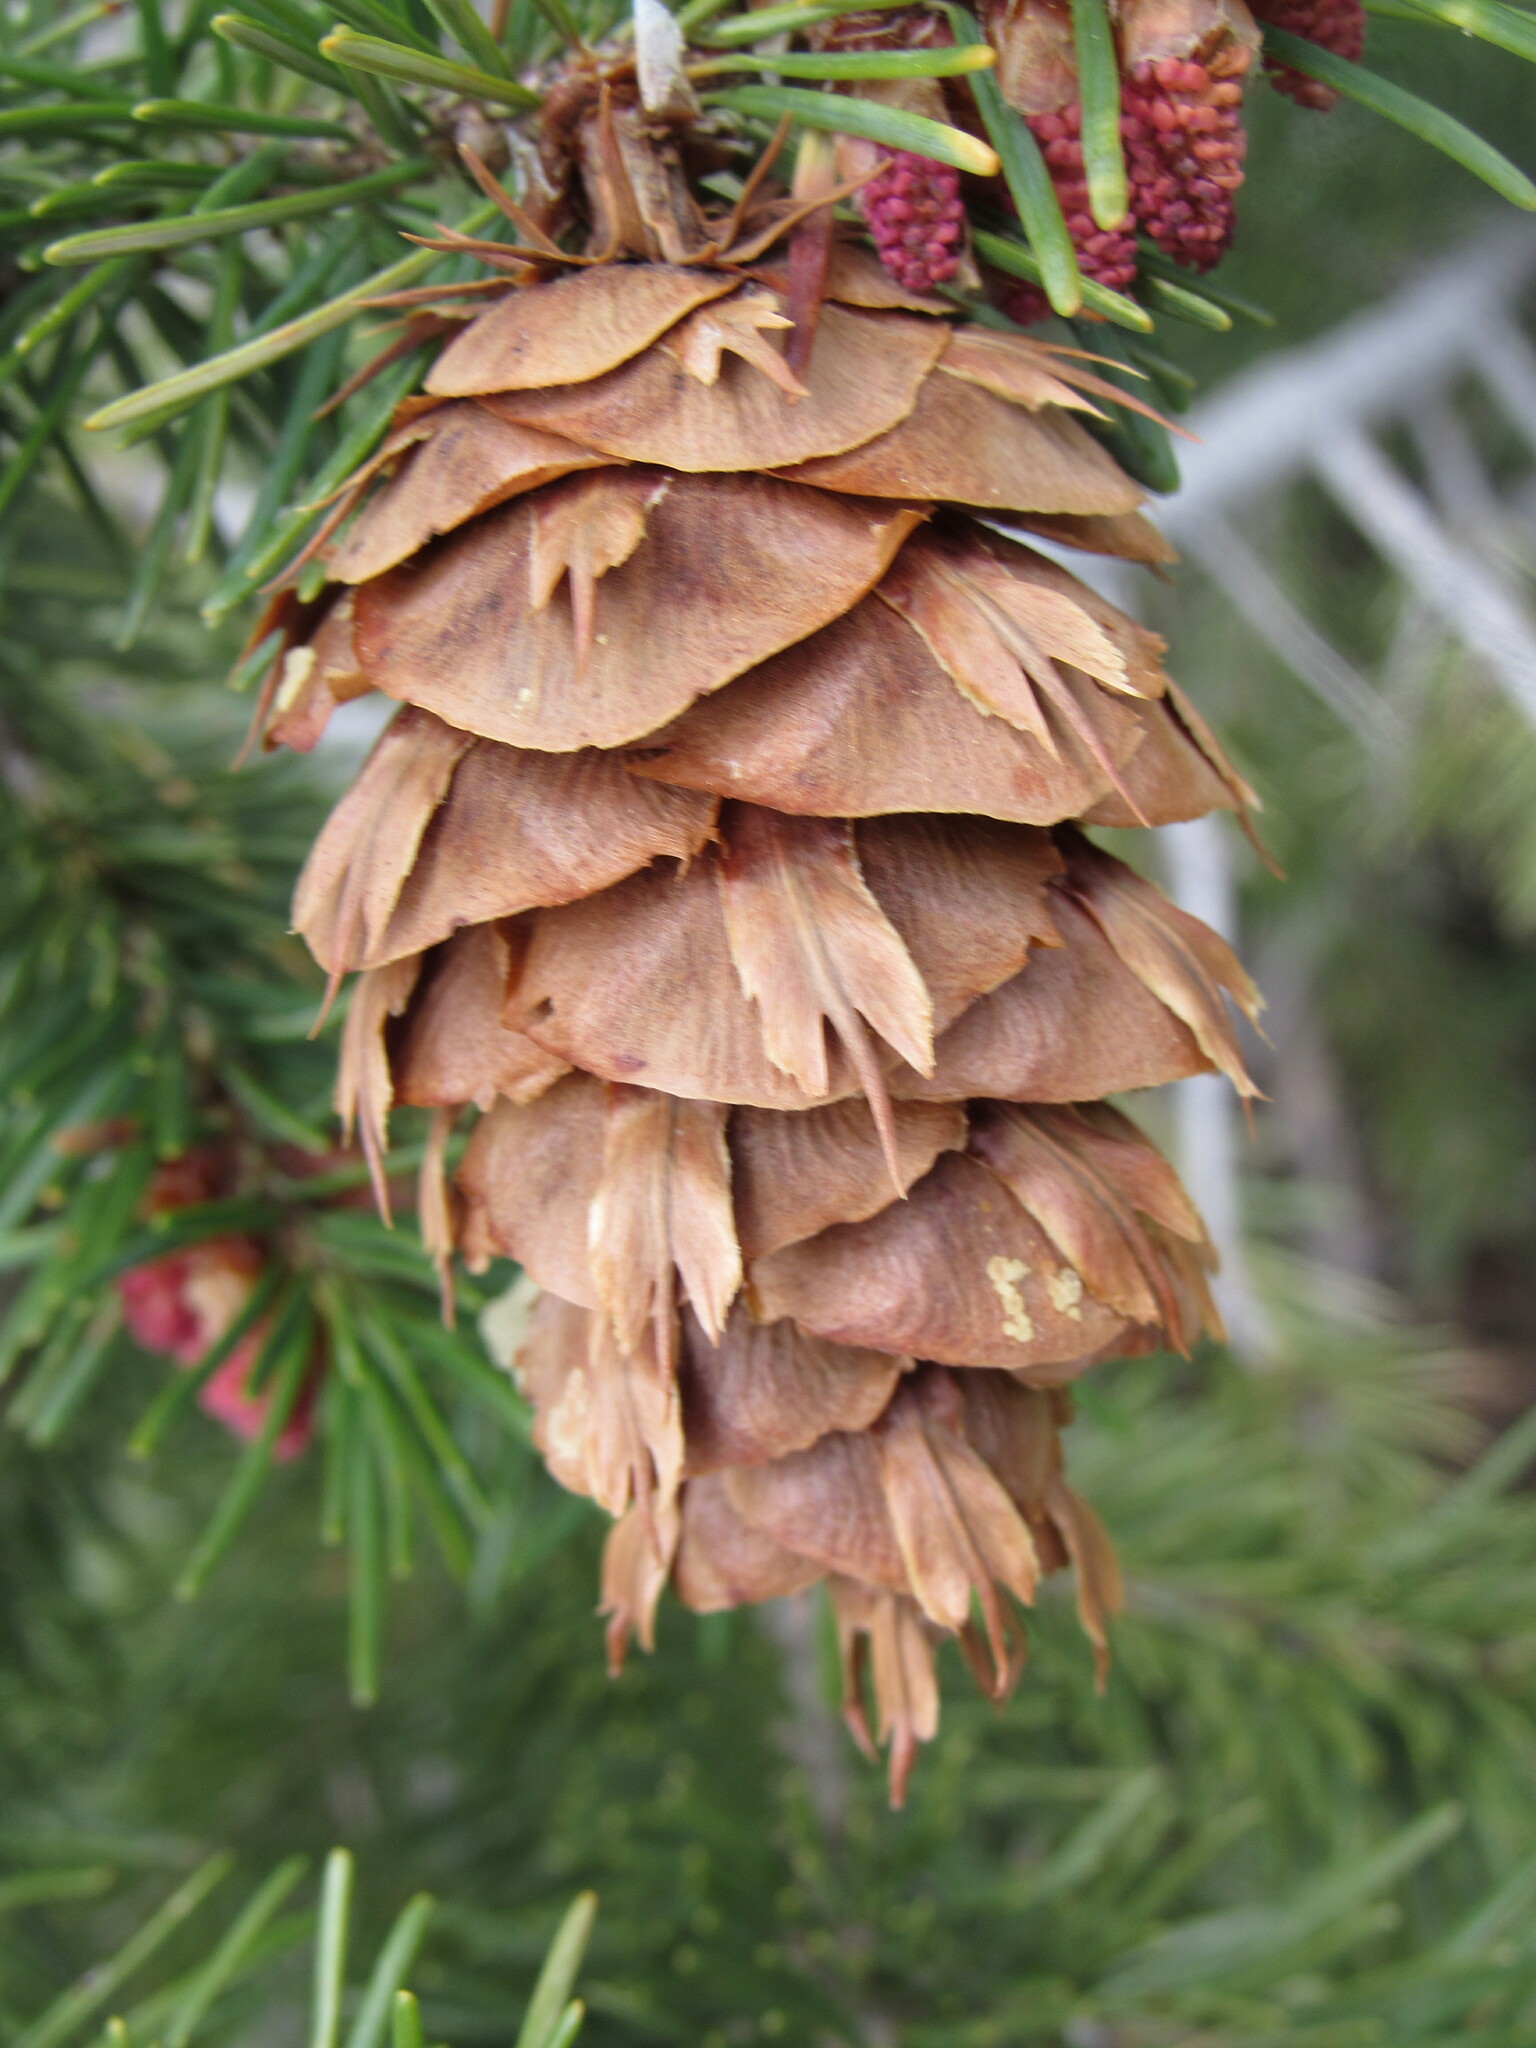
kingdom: Plantae
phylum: Tracheophyta
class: Pinopsida
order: Pinales
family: Pinaceae
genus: Pseudotsuga
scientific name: Pseudotsuga menziesii
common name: Douglas fir
